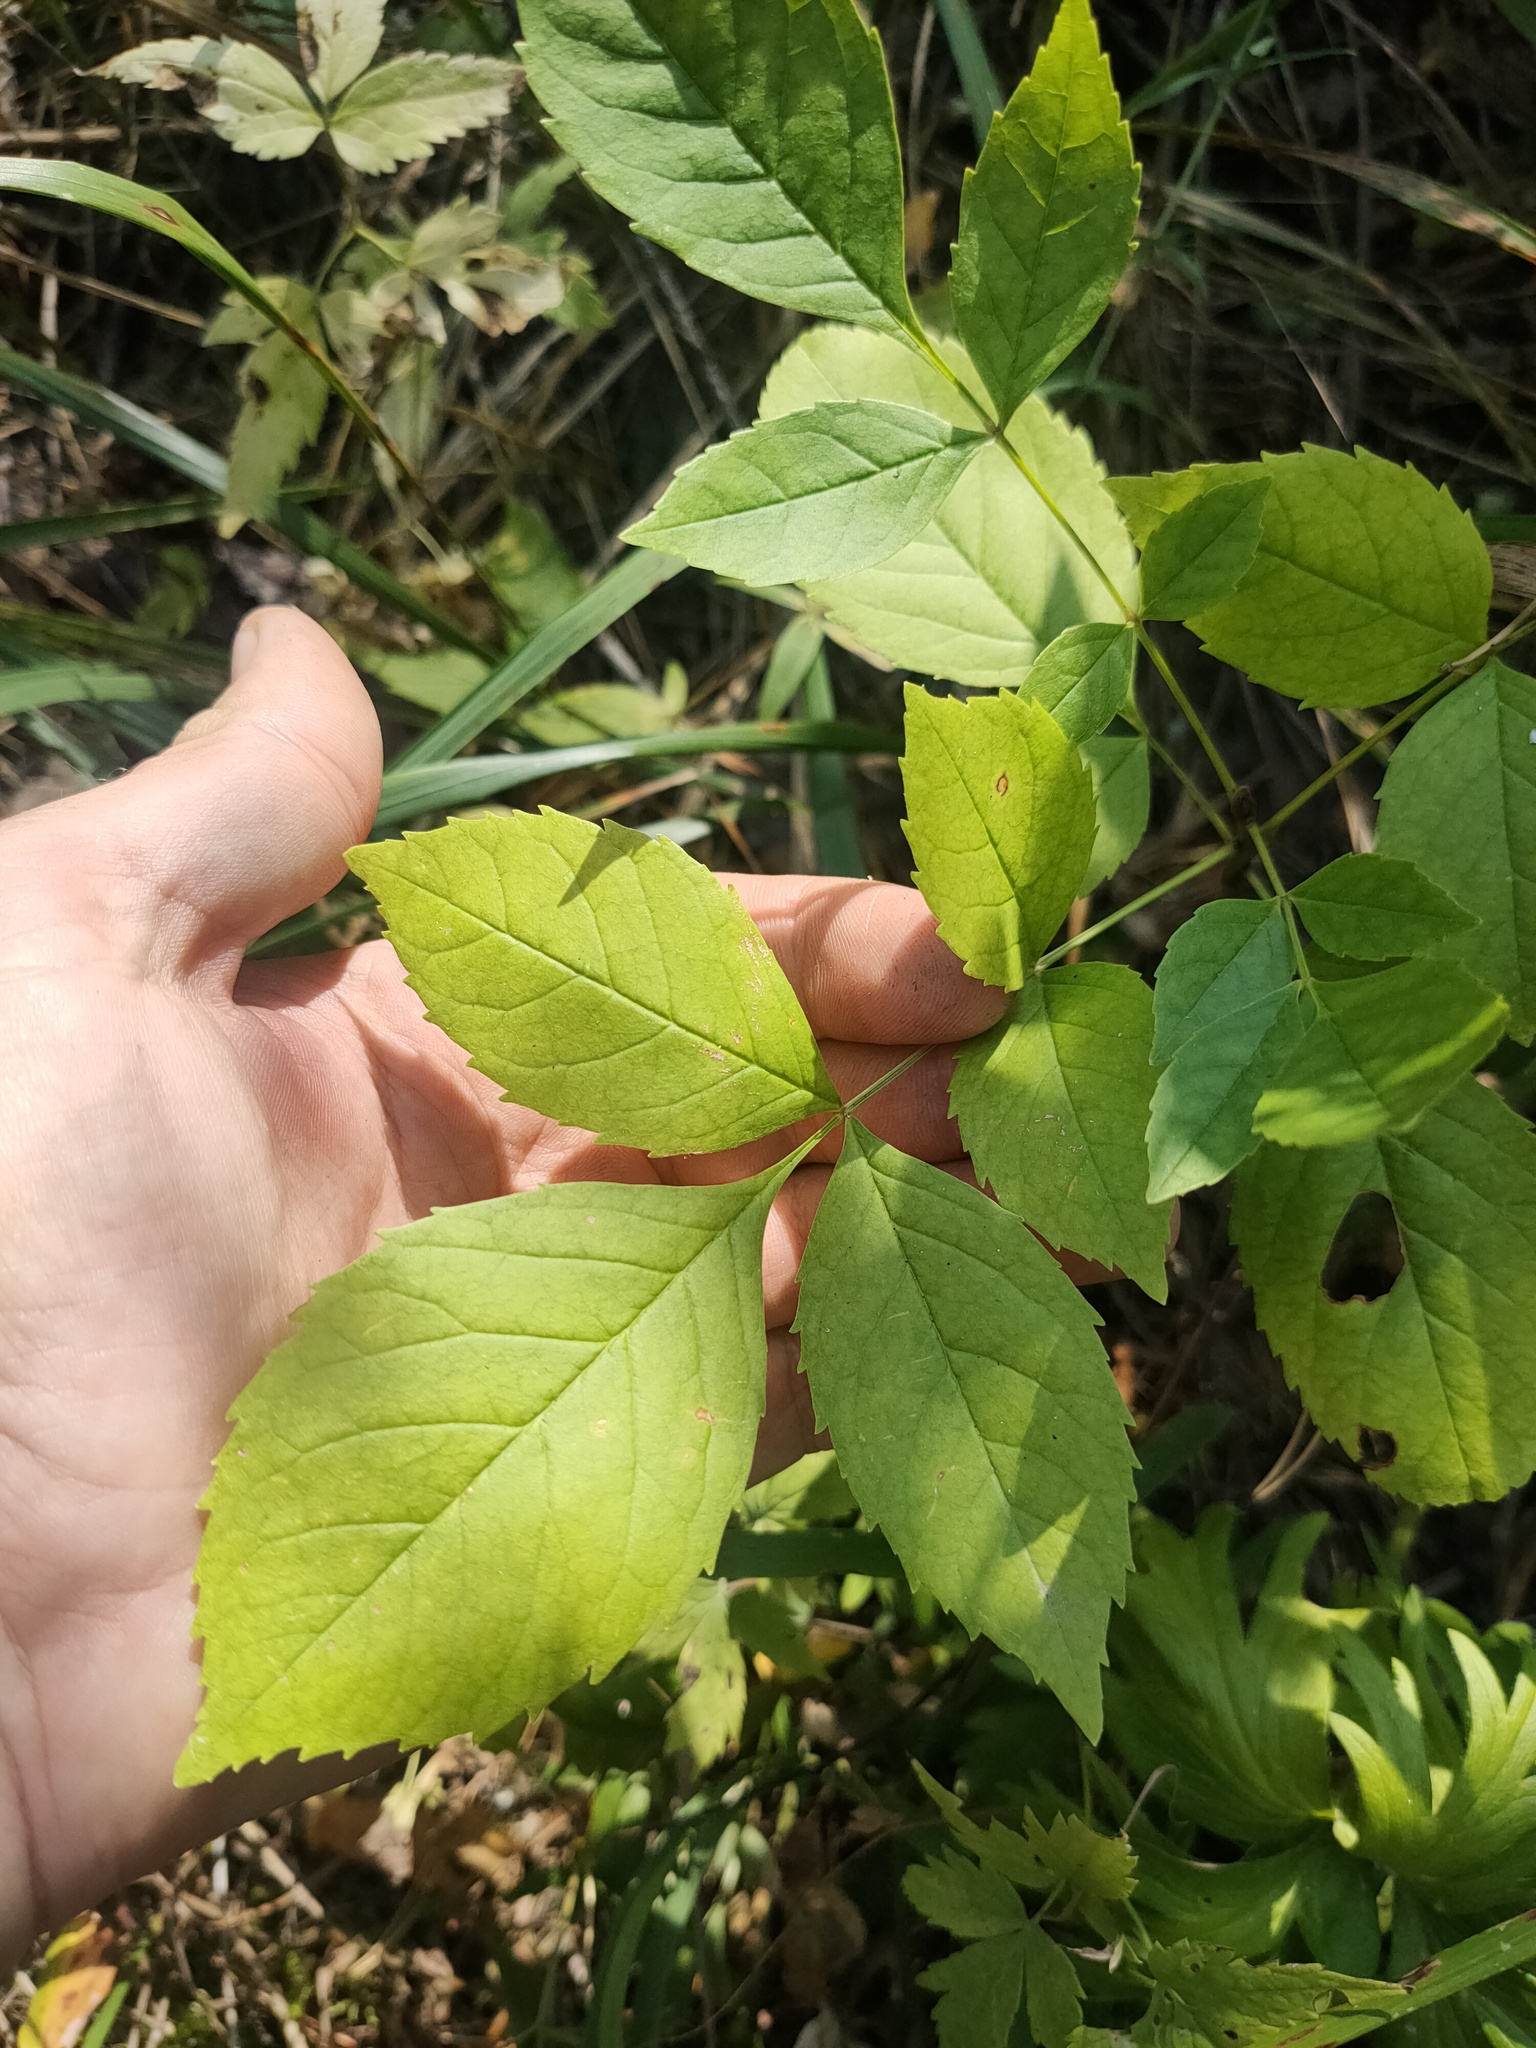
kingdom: Plantae
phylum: Tracheophyta
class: Magnoliopsida
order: Lamiales
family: Oleaceae
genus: Fraxinus
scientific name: Fraxinus pennsylvanica
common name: Green ash
